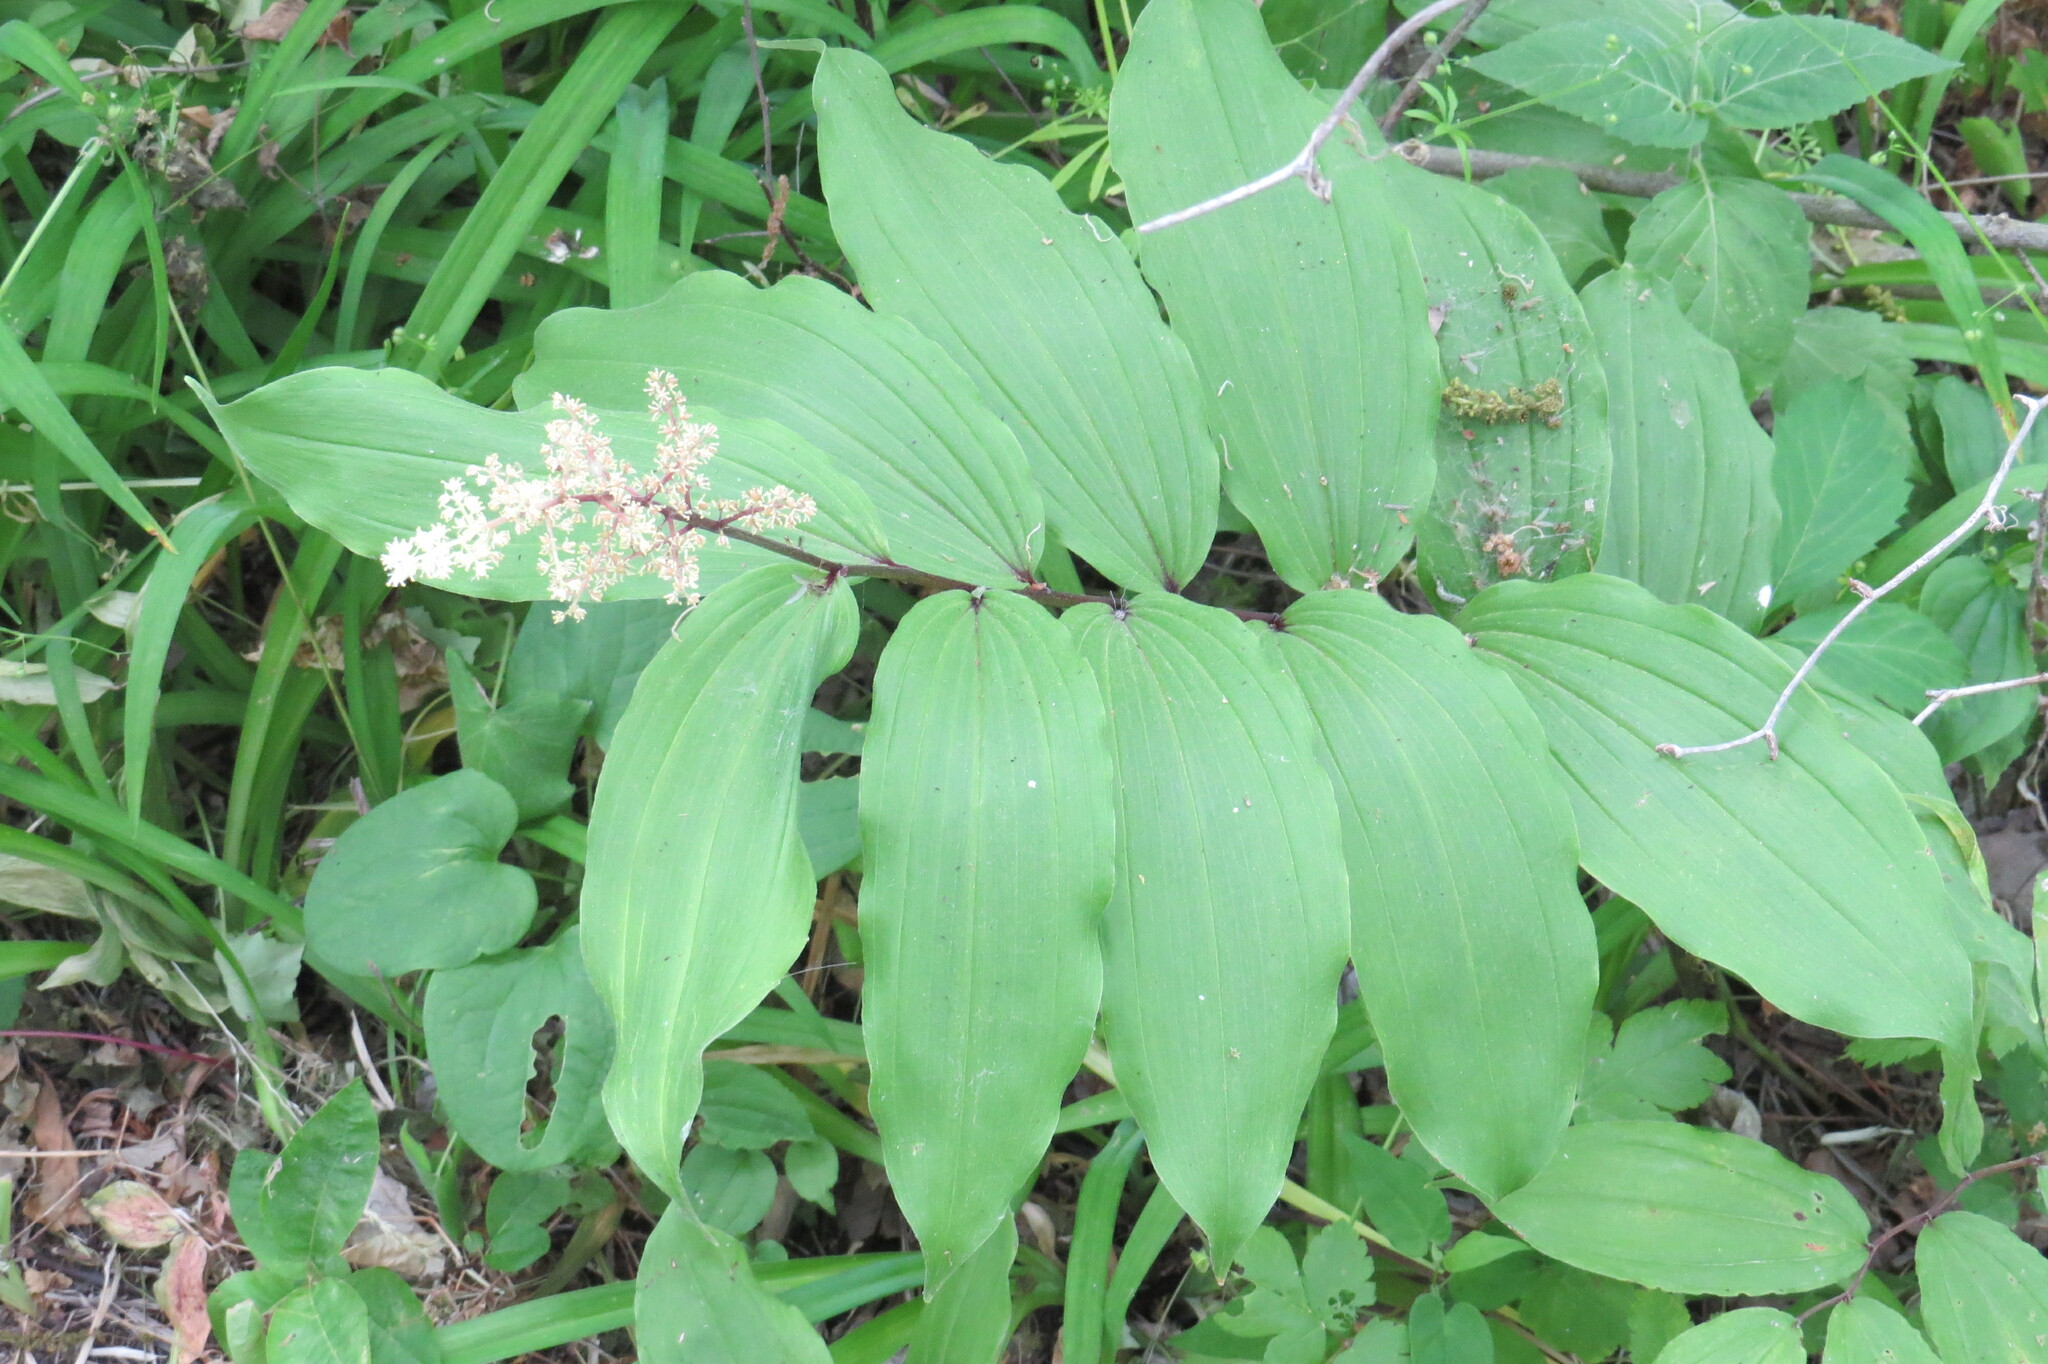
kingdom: Plantae
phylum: Tracheophyta
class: Liliopsida
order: Asparagales
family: Asparagaceae
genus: Maianthemum
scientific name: Maianthemum racemosum
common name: False spikenard
